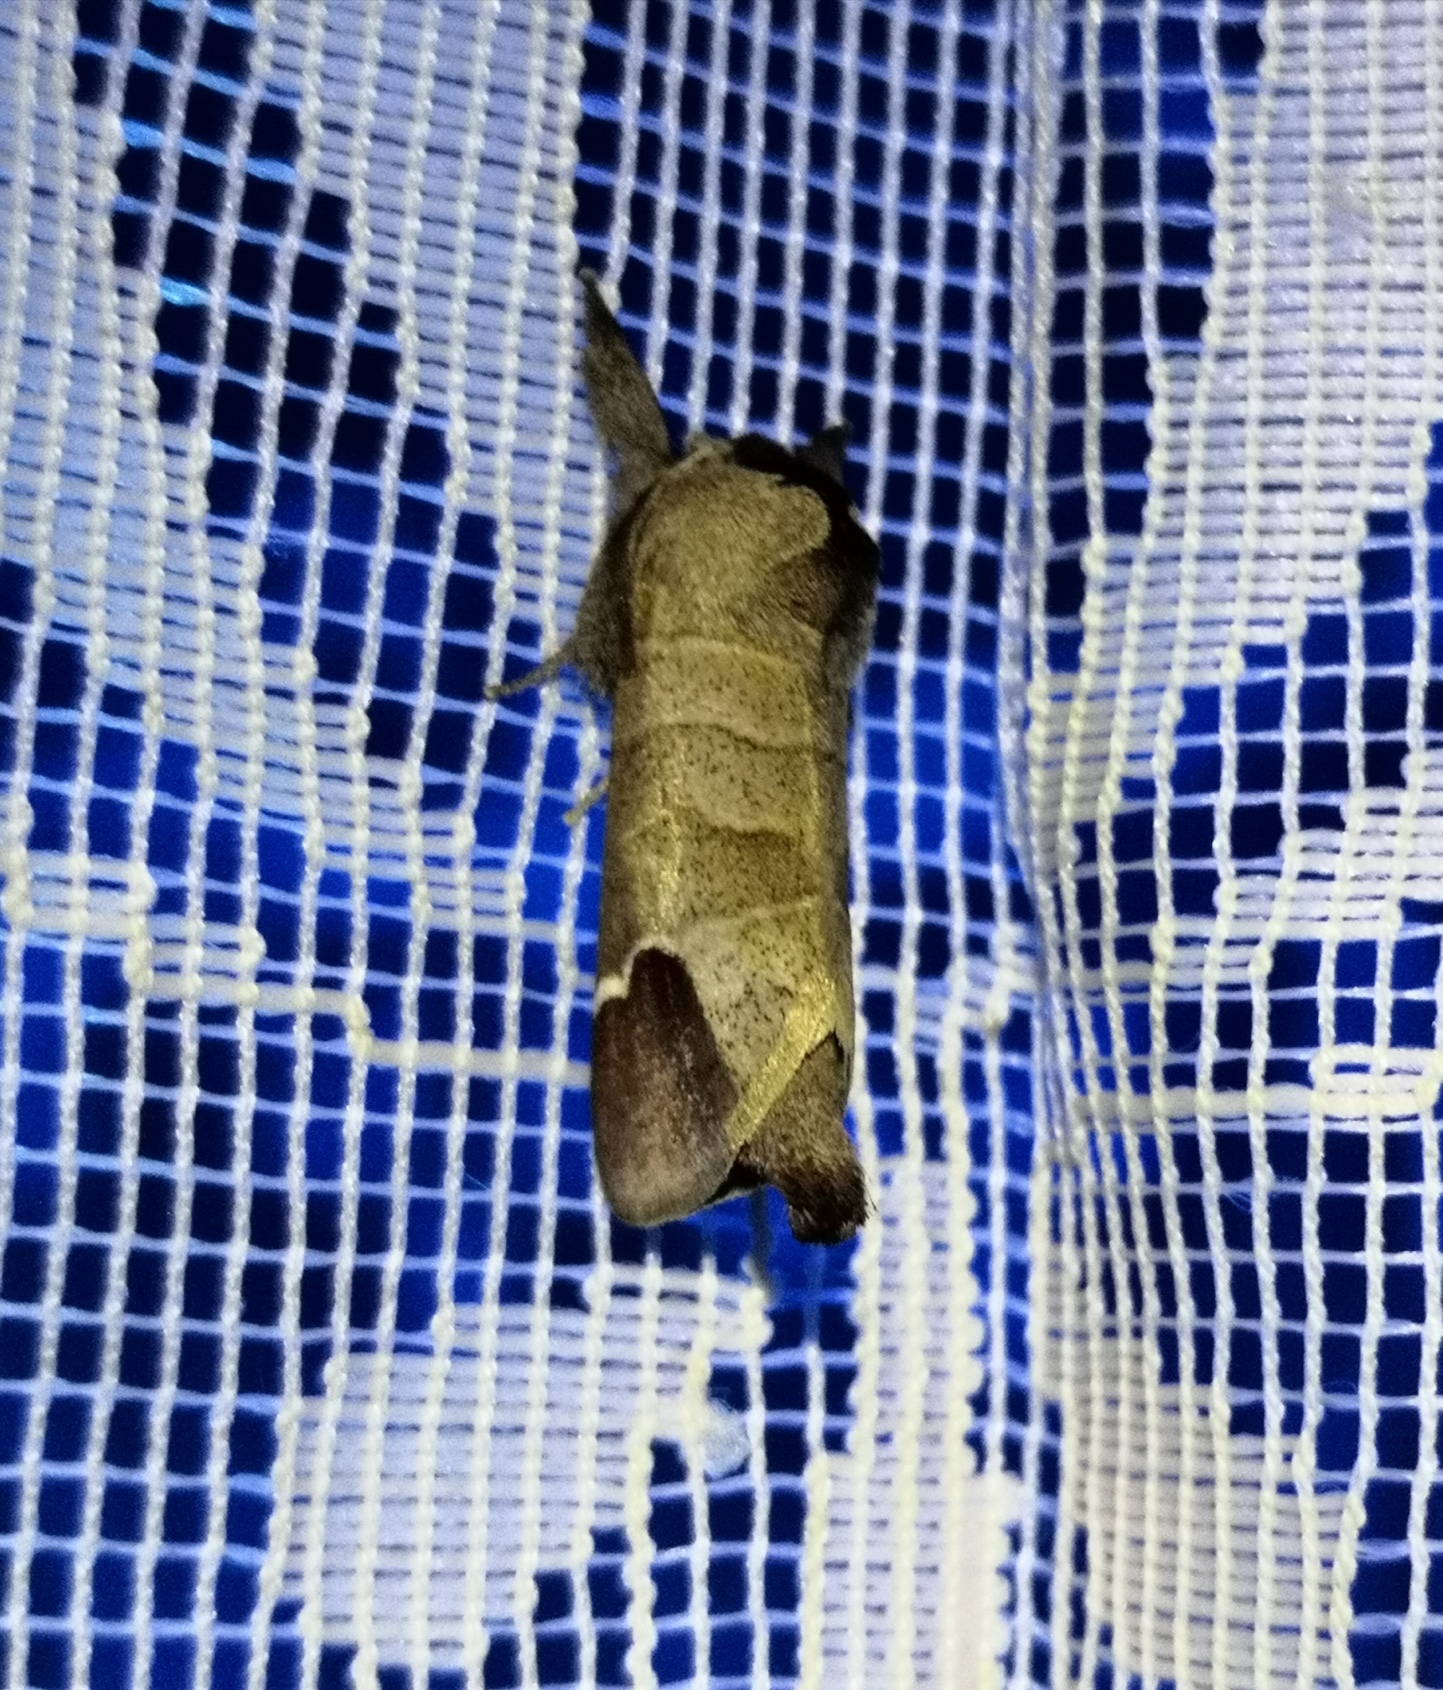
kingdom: Animalia
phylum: Arthropoda
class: Insecta
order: Lepidoptera
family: Notodontidae
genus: Clostera
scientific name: Clostera curtula
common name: Chocolate-tip
